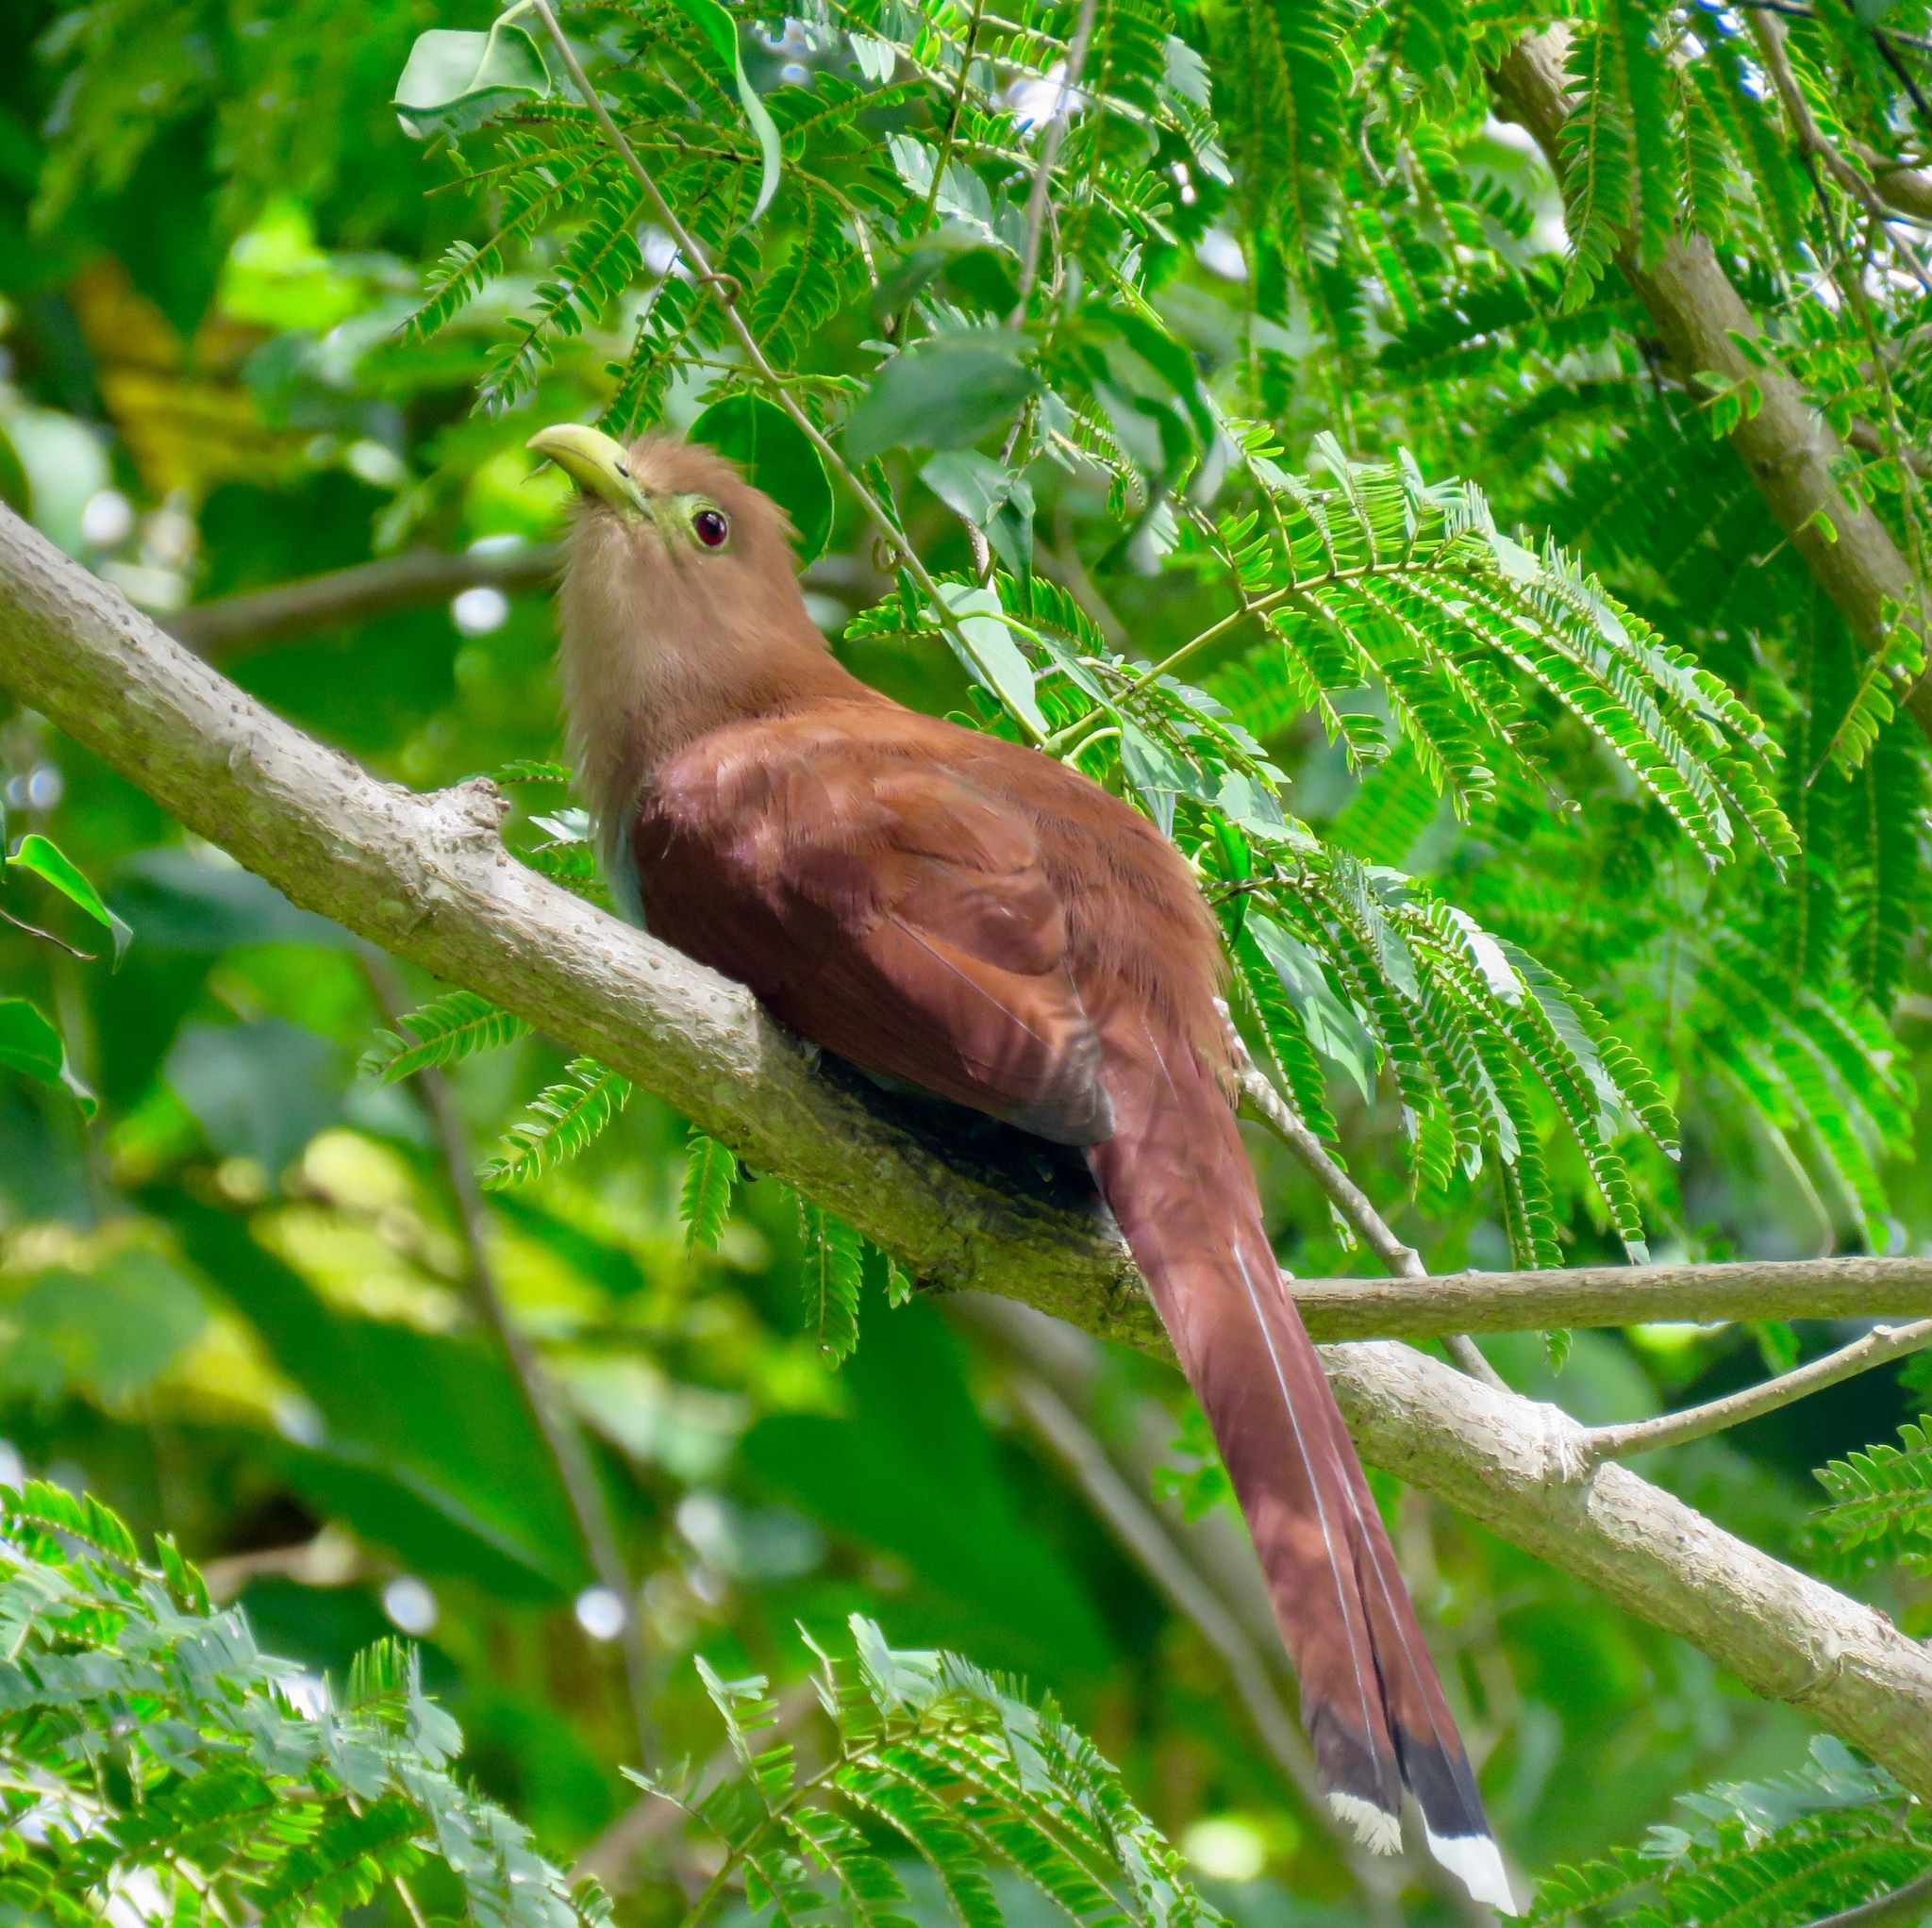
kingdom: Animalia
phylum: Chordata
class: Aves
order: Cuculiformes
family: Cuculidae
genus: Piaya
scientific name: Piaya cayana
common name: Squirrel cuckoo
